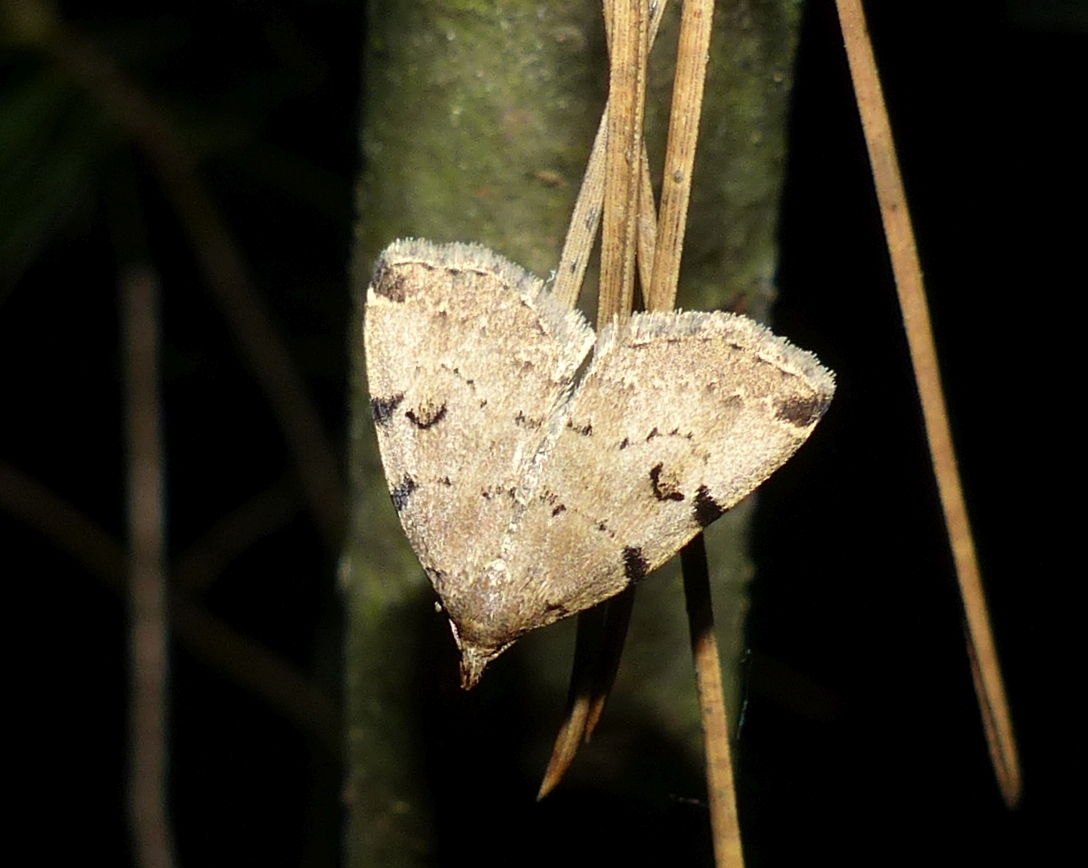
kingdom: Animalia
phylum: Arthropoda
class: Insecta
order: Lepidoptera
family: Erebidae
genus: Zanclognatha
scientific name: Zanclognatha lituralis
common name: Lettered fan-foot
